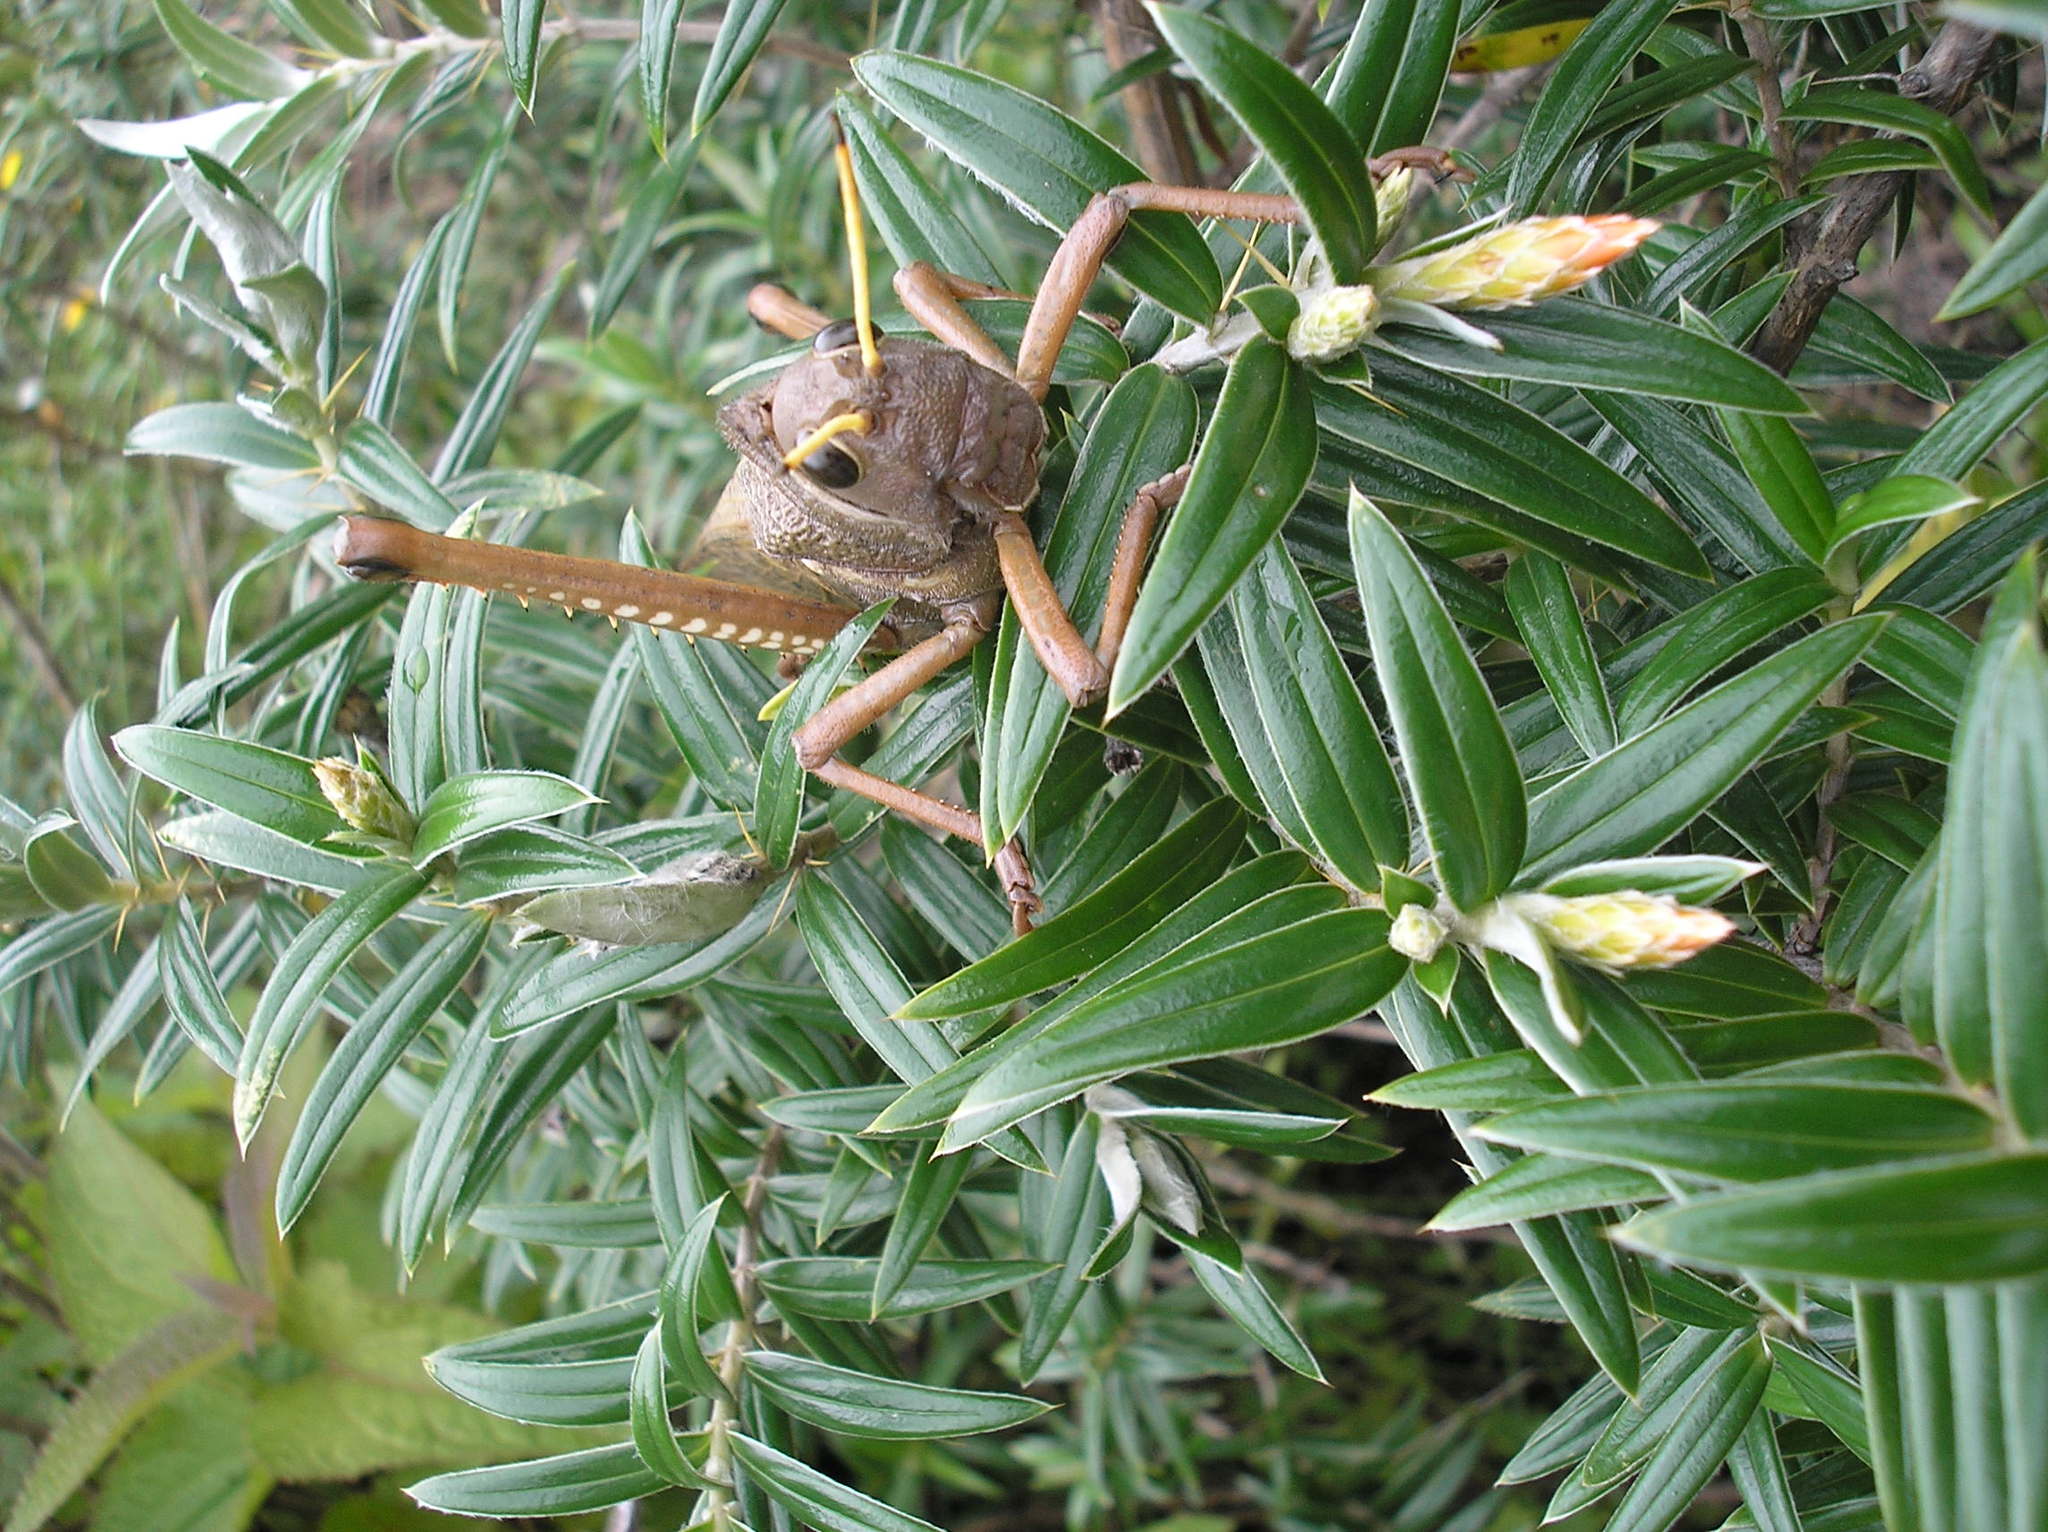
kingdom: Animalia
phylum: Arthropoda
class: Insecta
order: Orthoptera
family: Romaleidae
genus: Tropidacris
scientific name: Tropidacris collaris
